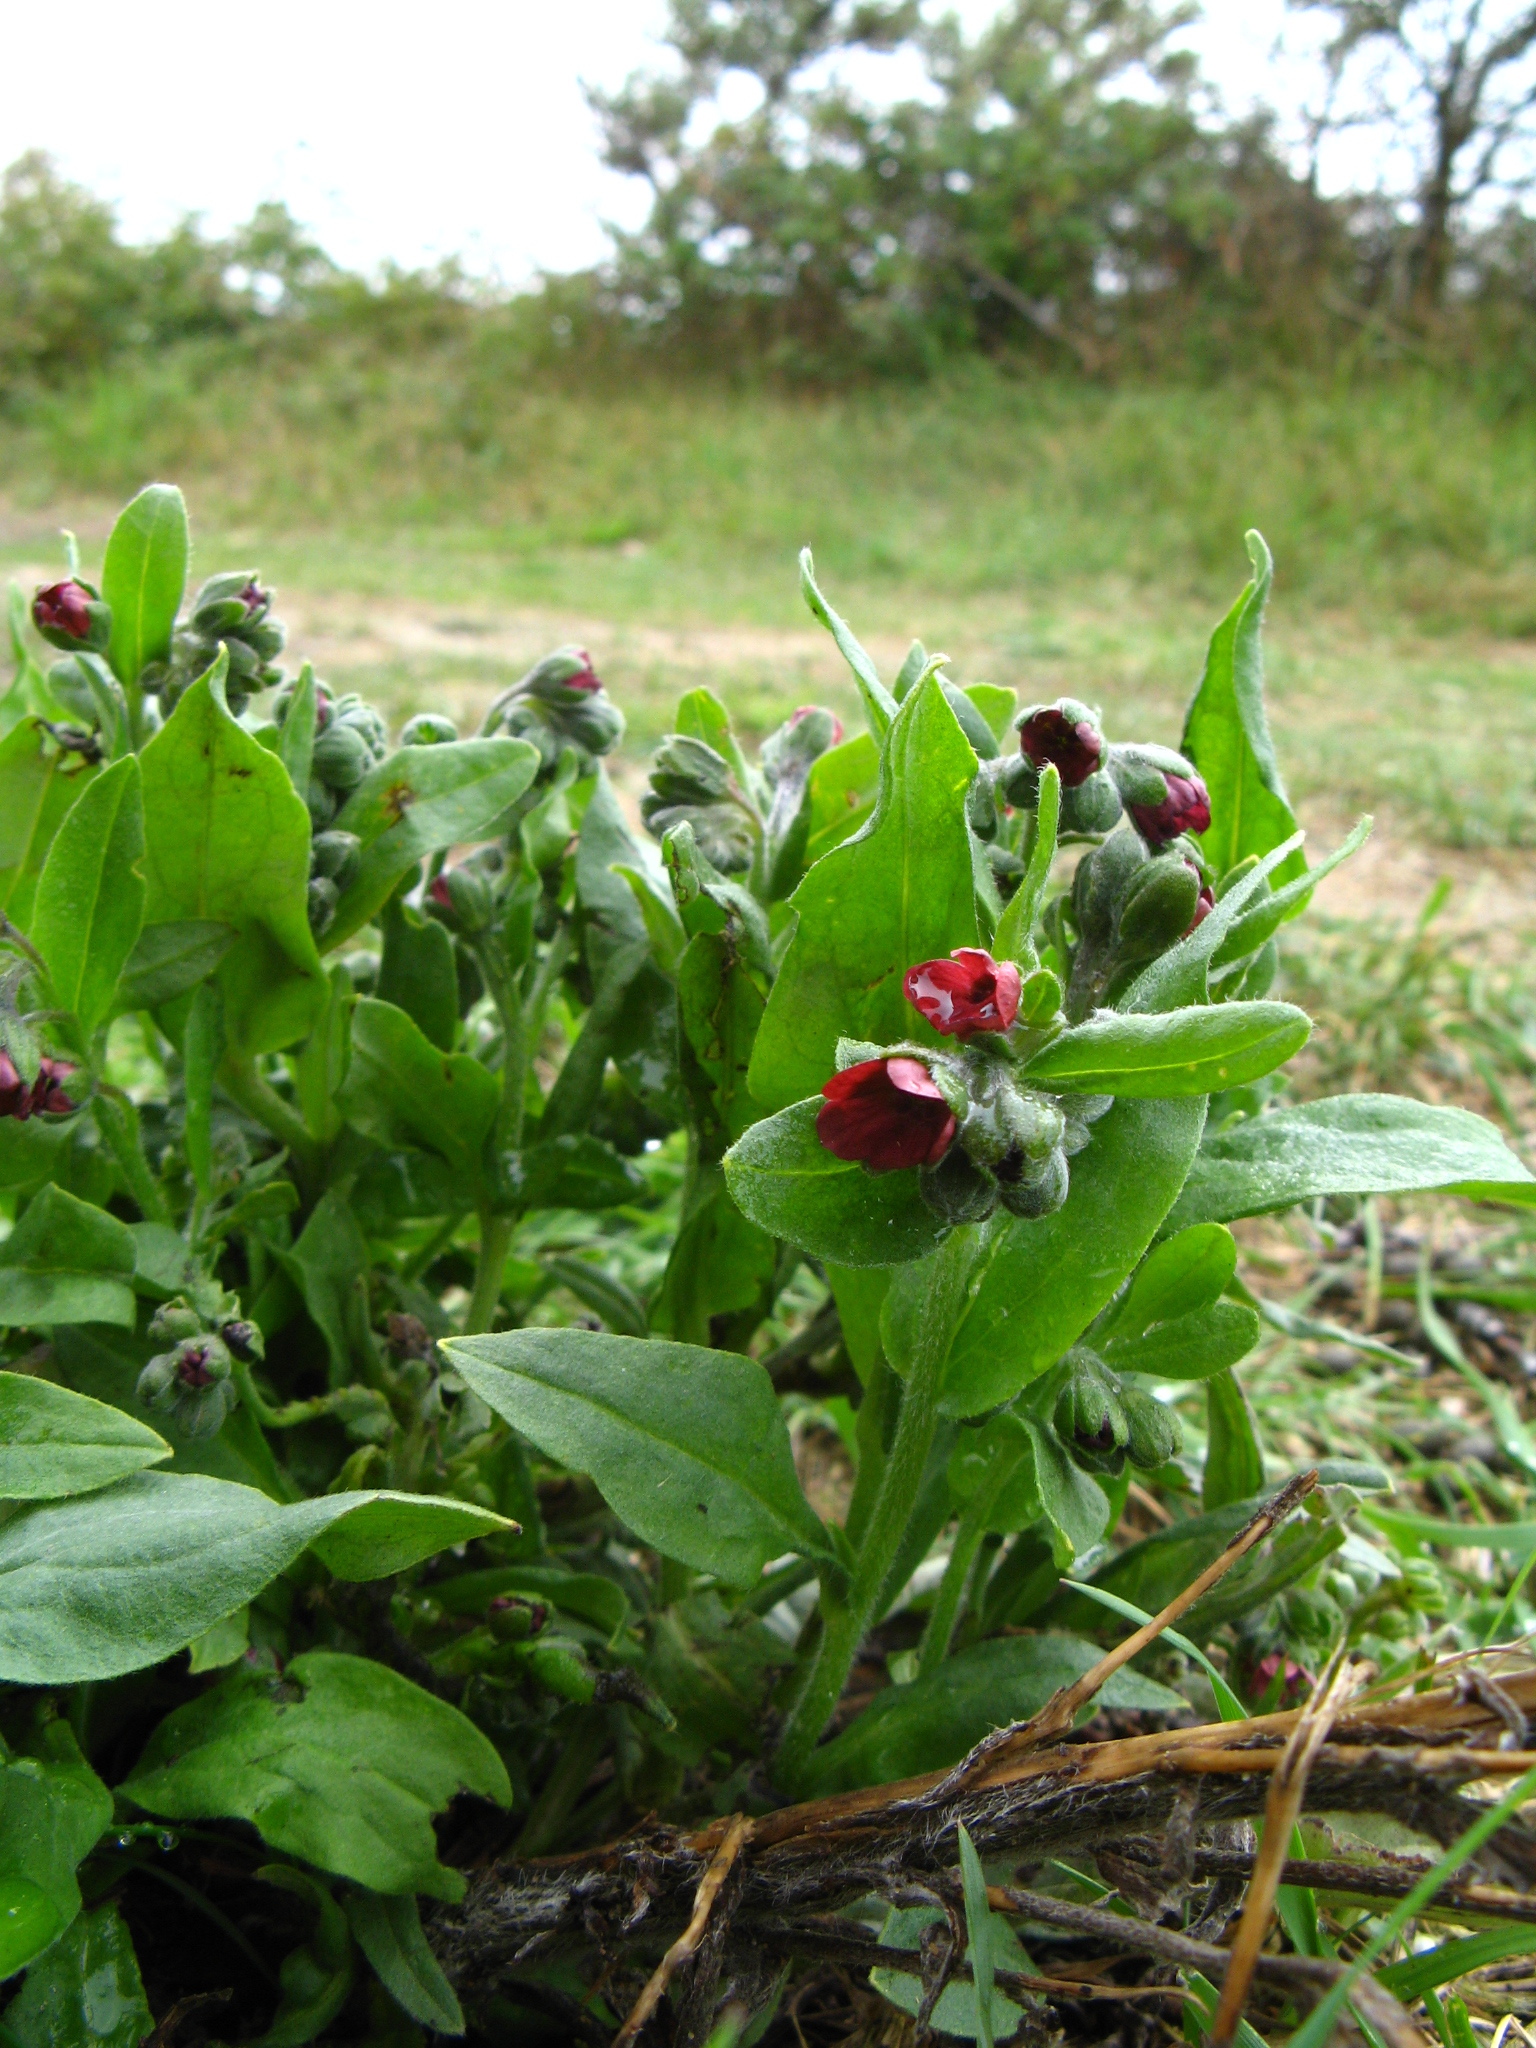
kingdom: Plantae
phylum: Tracheophyta
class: Magnoliopsida
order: Boraginales
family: Boraginaceae
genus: Cynoglossum
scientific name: Cynoglossum officinale
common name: Hound's-tongue
